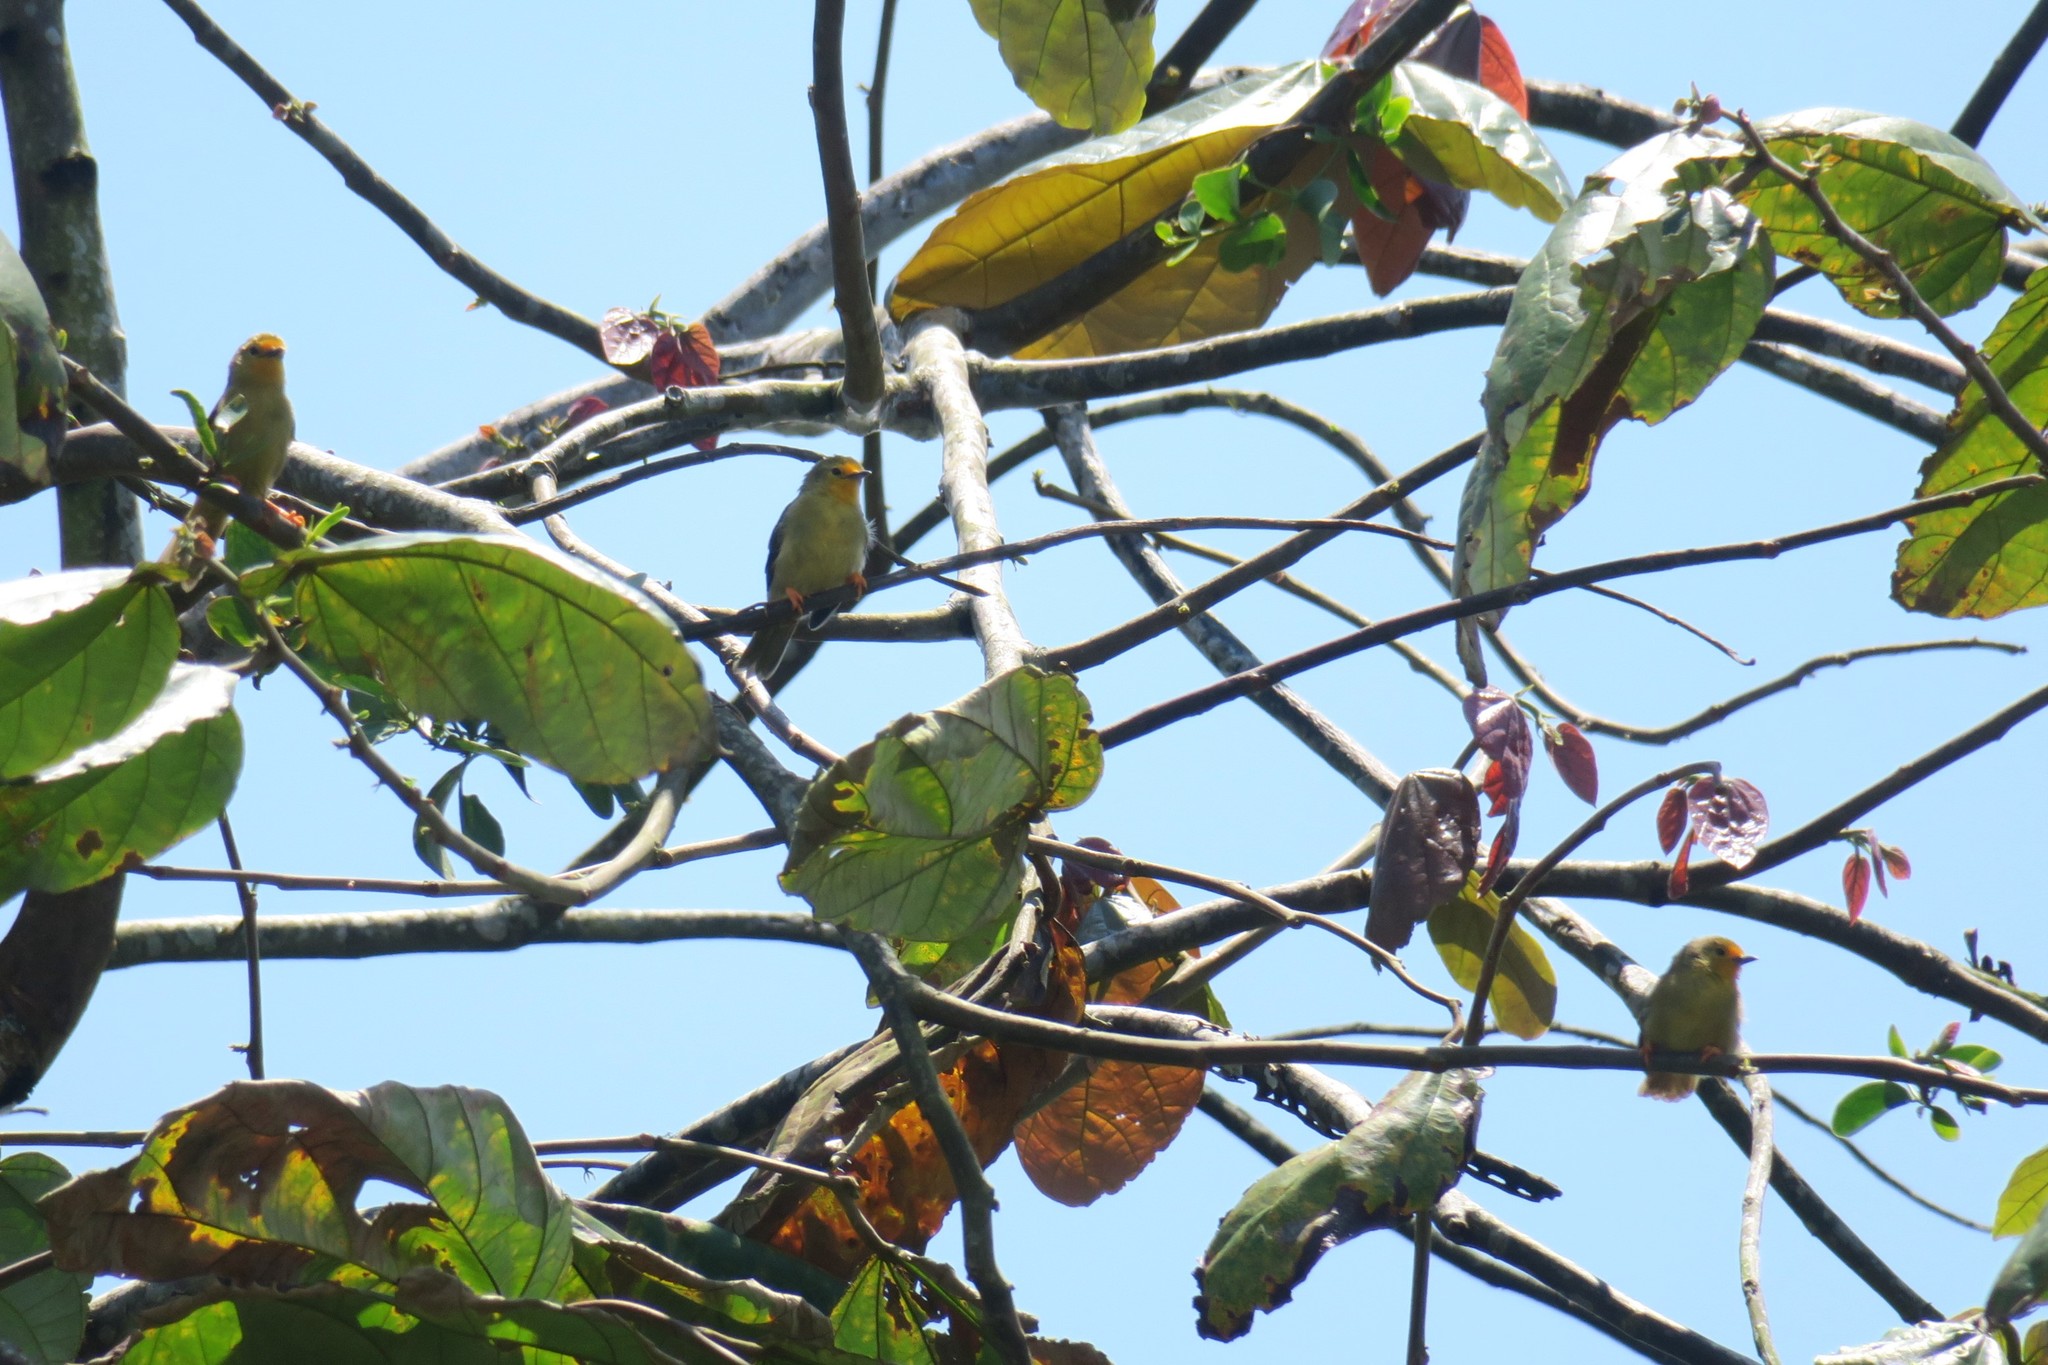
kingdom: Animalia
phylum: Chordata
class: Aves
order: Passeriformes
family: Furnariidae
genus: Metopothrix
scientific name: Metopothrix aurantiaca
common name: Orange-fronted plushcrown
